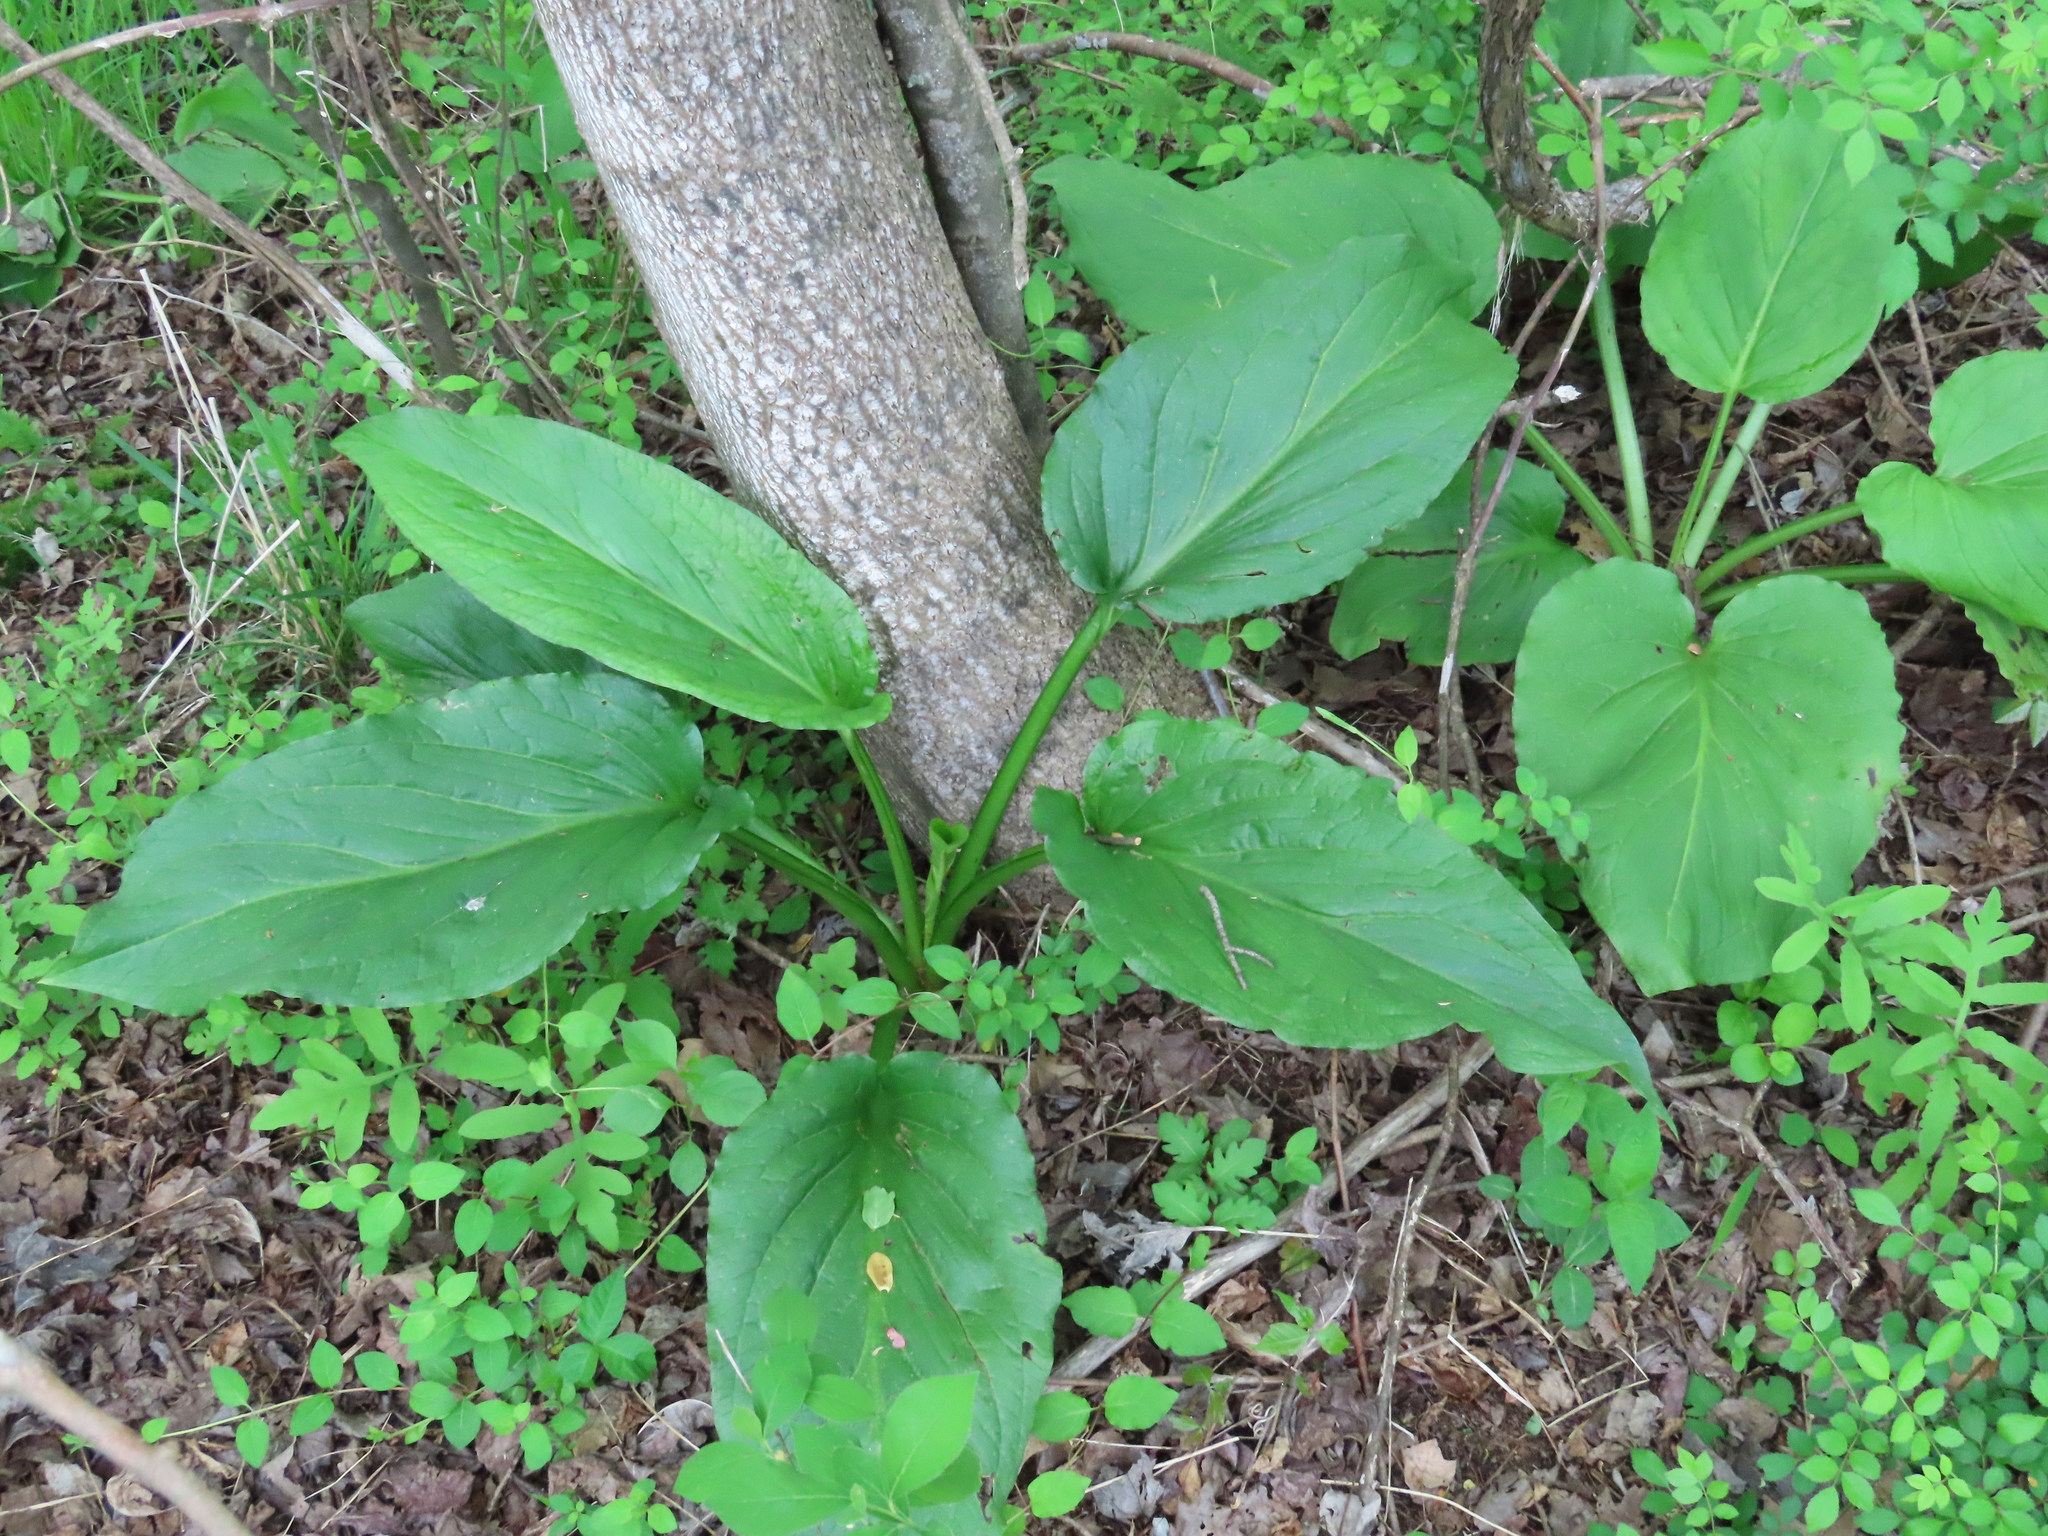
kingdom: Plantae
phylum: Tracheophyta
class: Liliopsida
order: Alismatales
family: Araceae
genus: Symplocarpus
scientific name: Symplocarpus foetidus
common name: Eastern skunk cabbage
